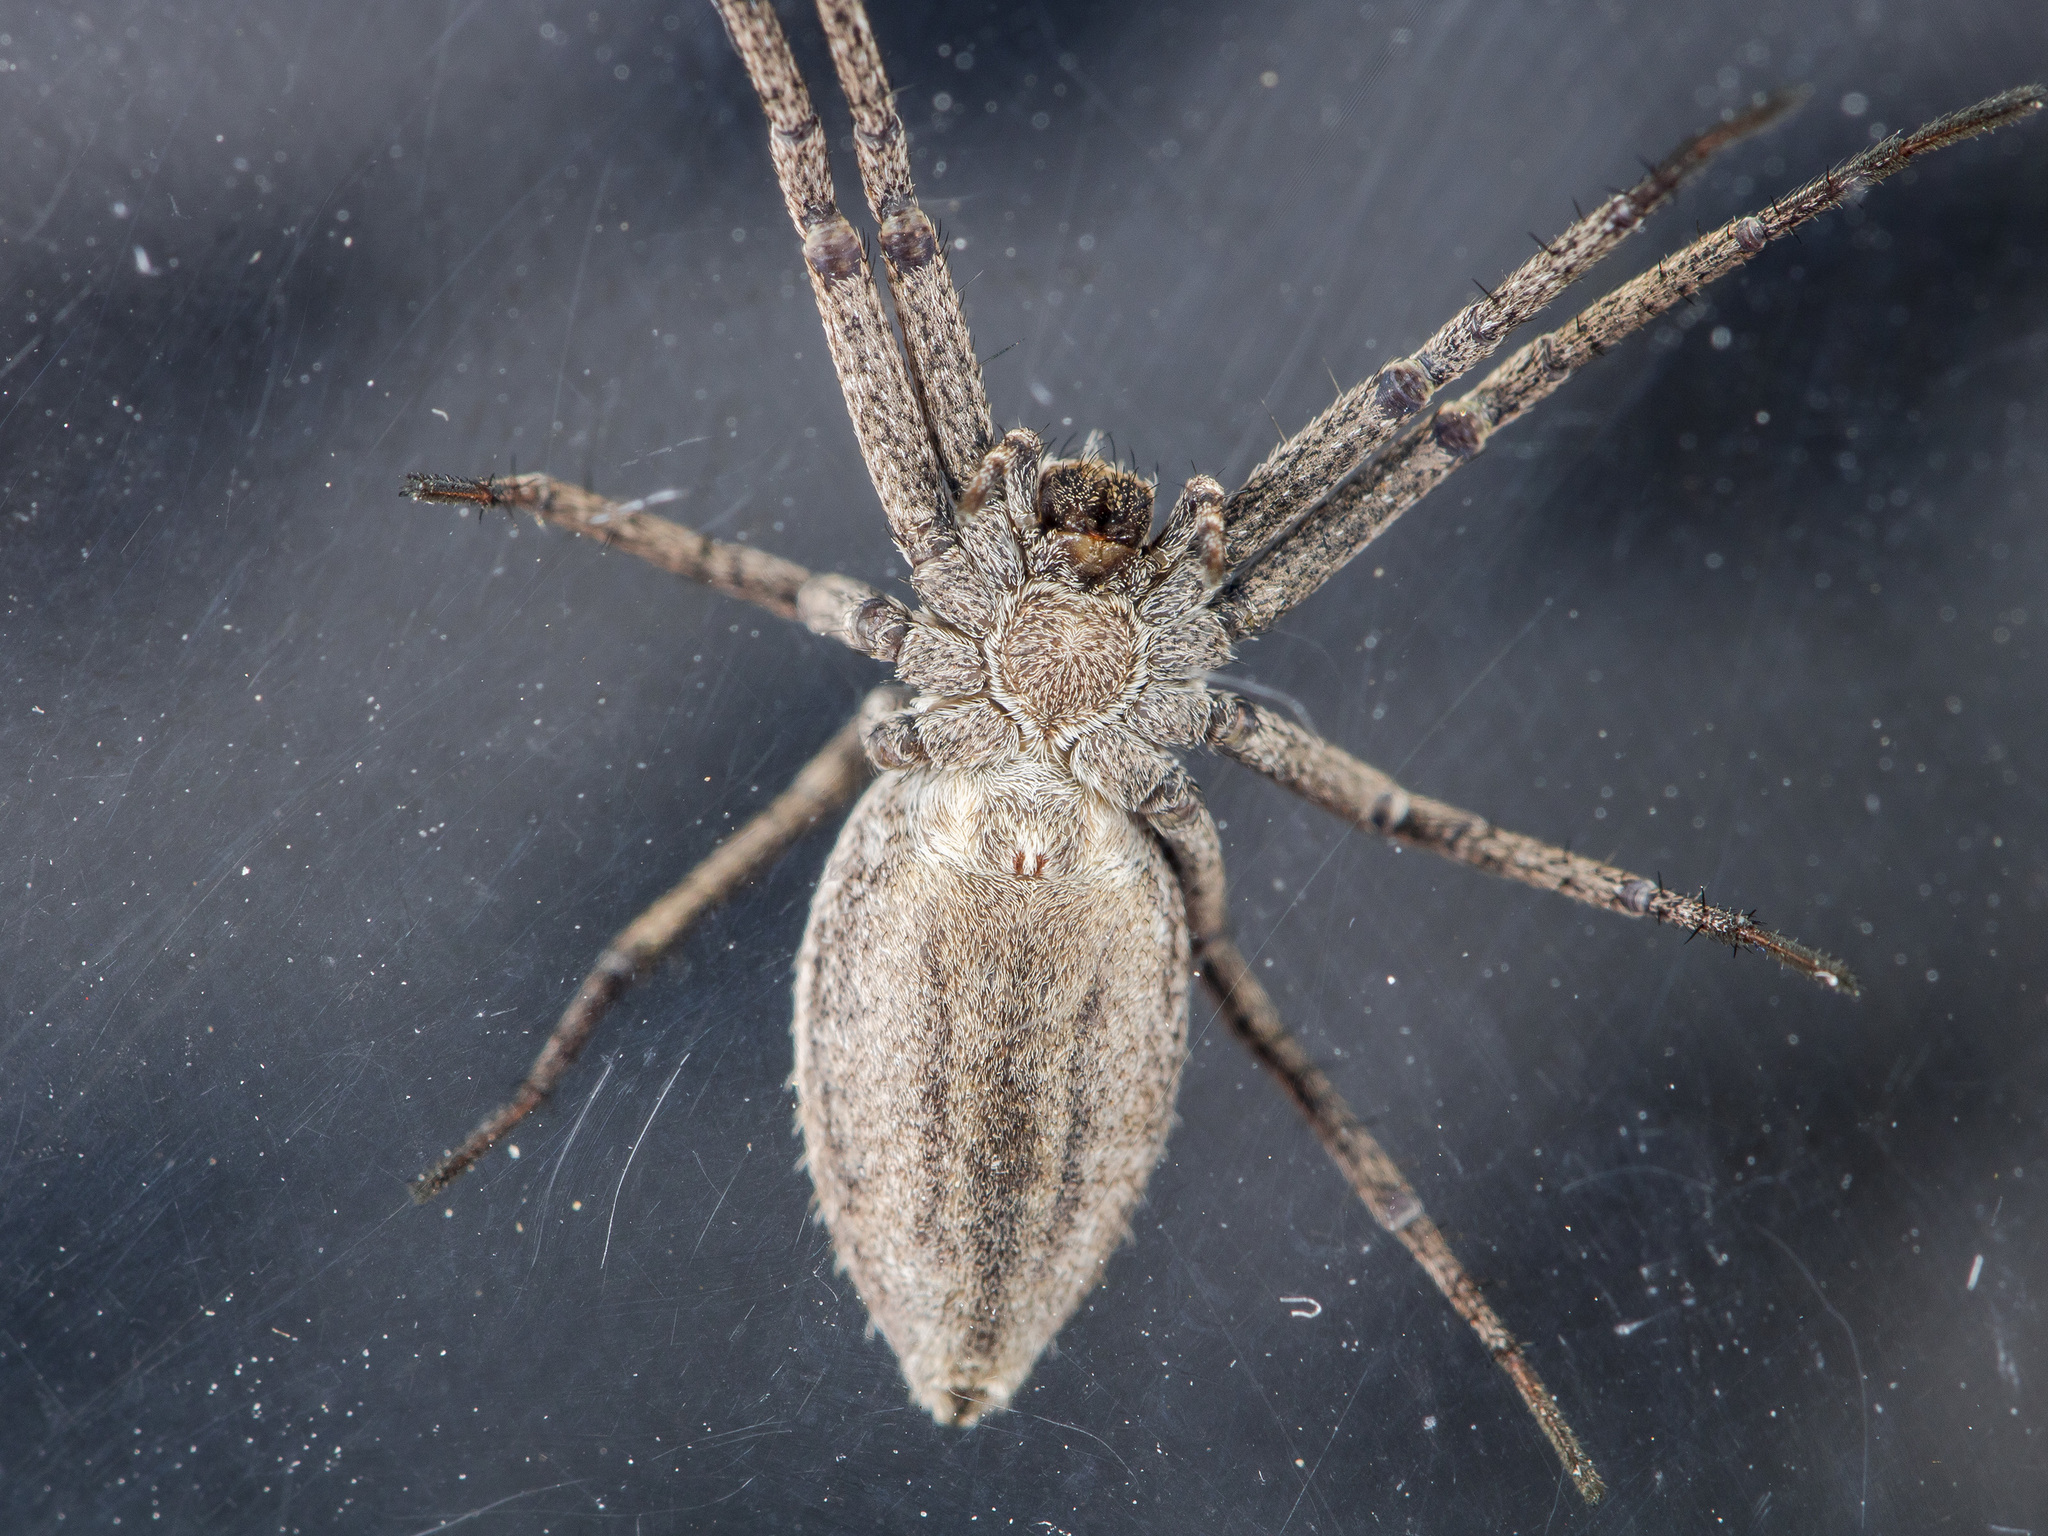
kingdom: Animalia
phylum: Arthropoda
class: Arachnida
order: Araneae
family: Philodromidae
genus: Thanatus
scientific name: Thanatus formicinus
